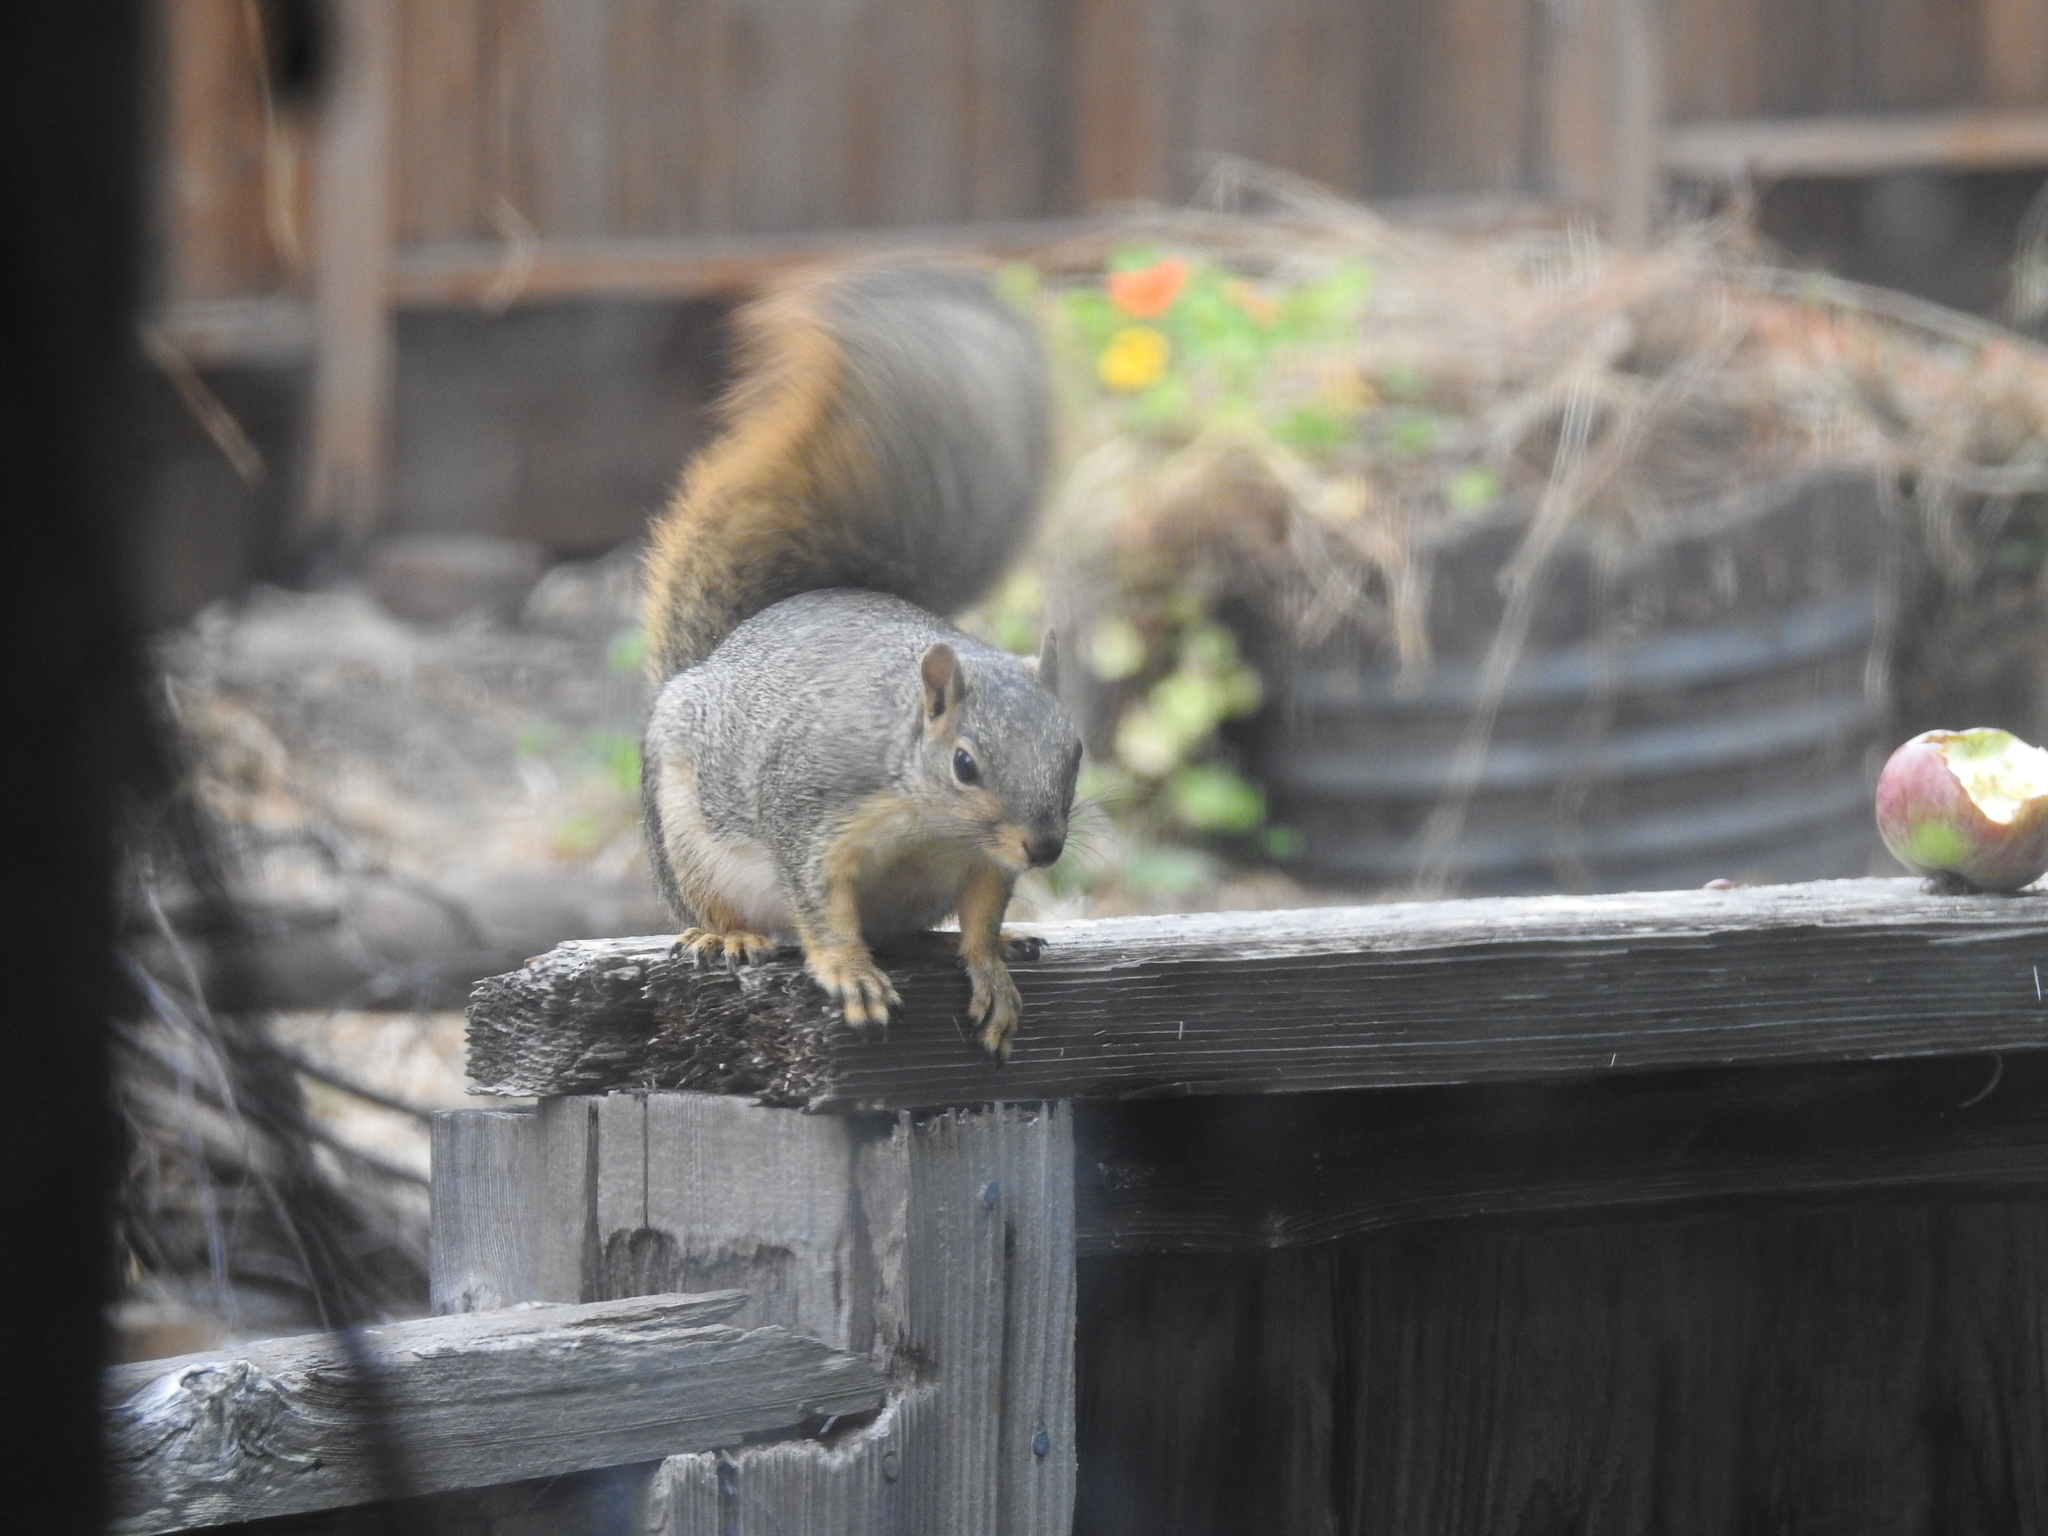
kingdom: Animalia
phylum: Chordata
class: Mammalia
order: Rodentia
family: Sciuridae
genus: Sciurus
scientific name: Sciurus niger
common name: Fox squirrel
